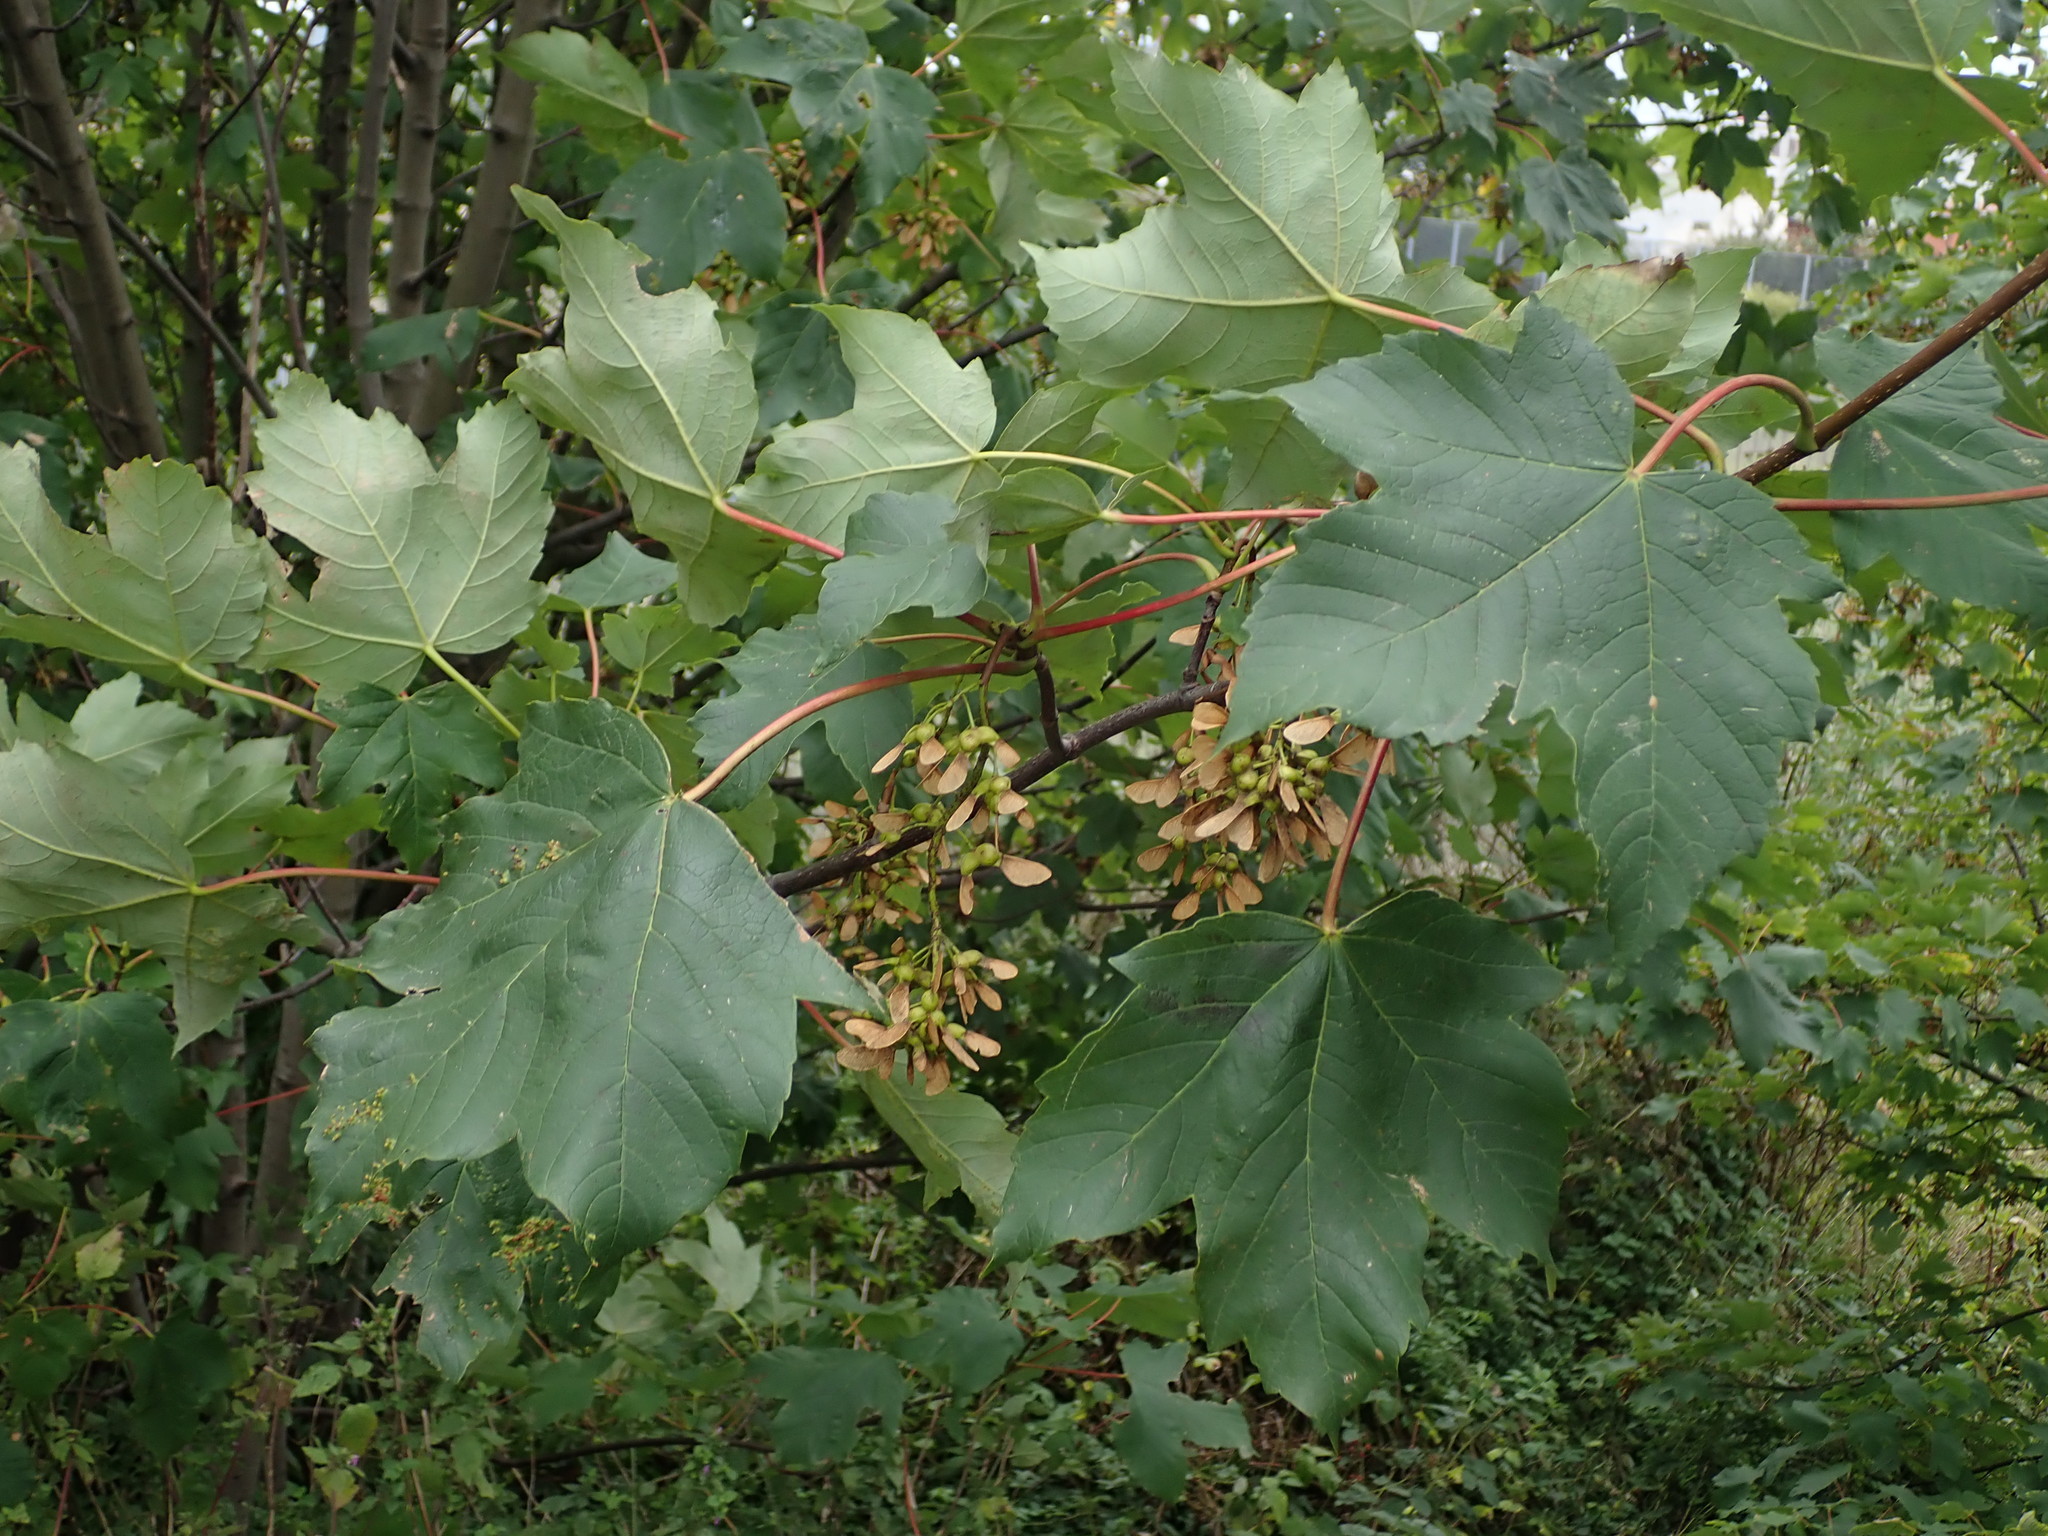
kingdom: Plantae
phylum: Tracheophyta
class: Magnoliopsida
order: Sapindales
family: Sapindaceae
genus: Acer
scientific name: Acer pseudoplatanus
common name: Sycamore
